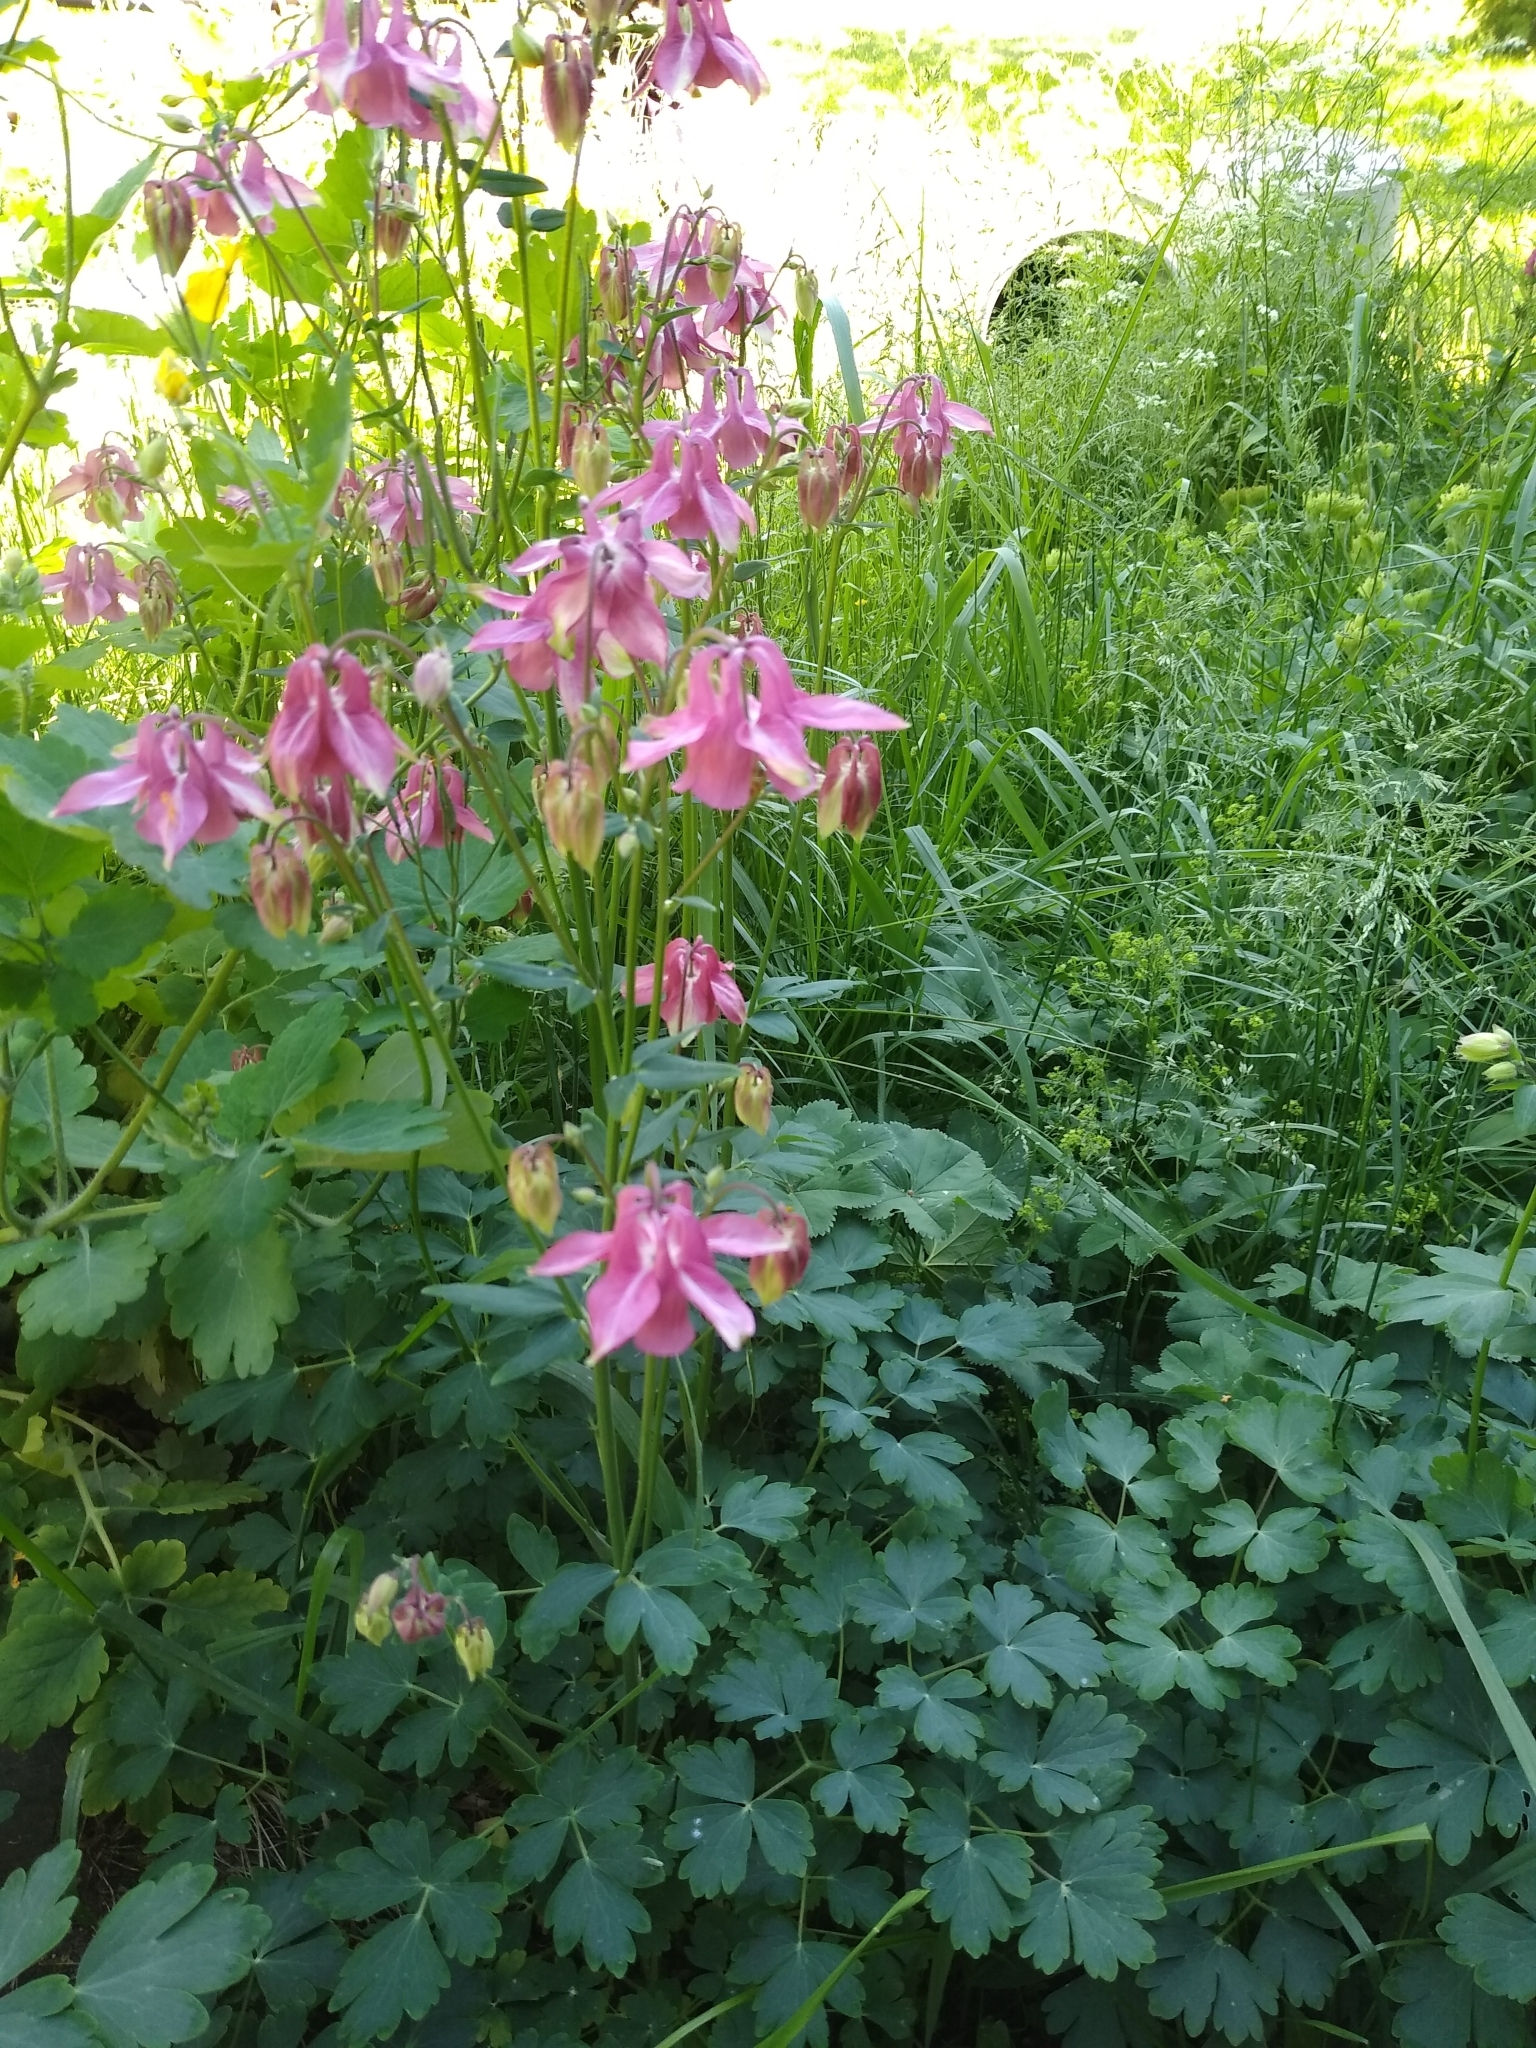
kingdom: Plantae
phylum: Tracheophyta
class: Magnoliopsida
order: Ranunculales
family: Ranunculaceae
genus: Aquilegia
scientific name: Aquilegia vulgaris
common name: Columbine
